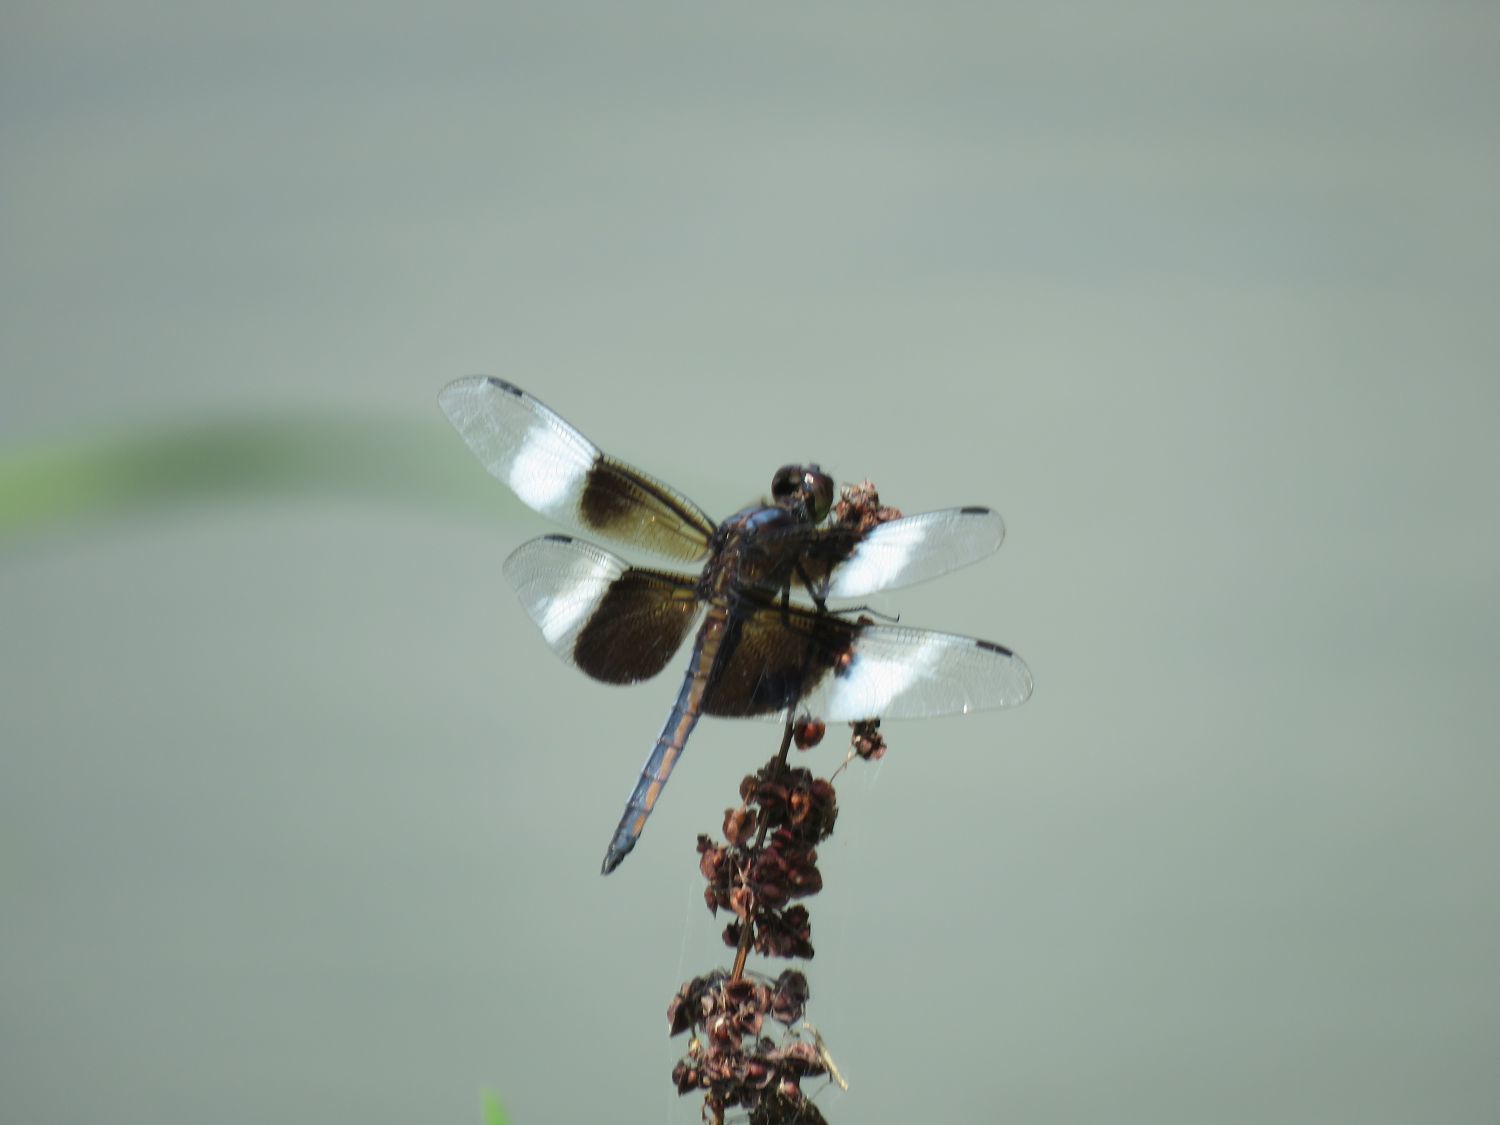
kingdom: Animalia
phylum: Arthropoda
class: Insecta
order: Odonata
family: Libellulidae
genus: Libellula
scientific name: Libellula luctuosa
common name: Widow skimmer
